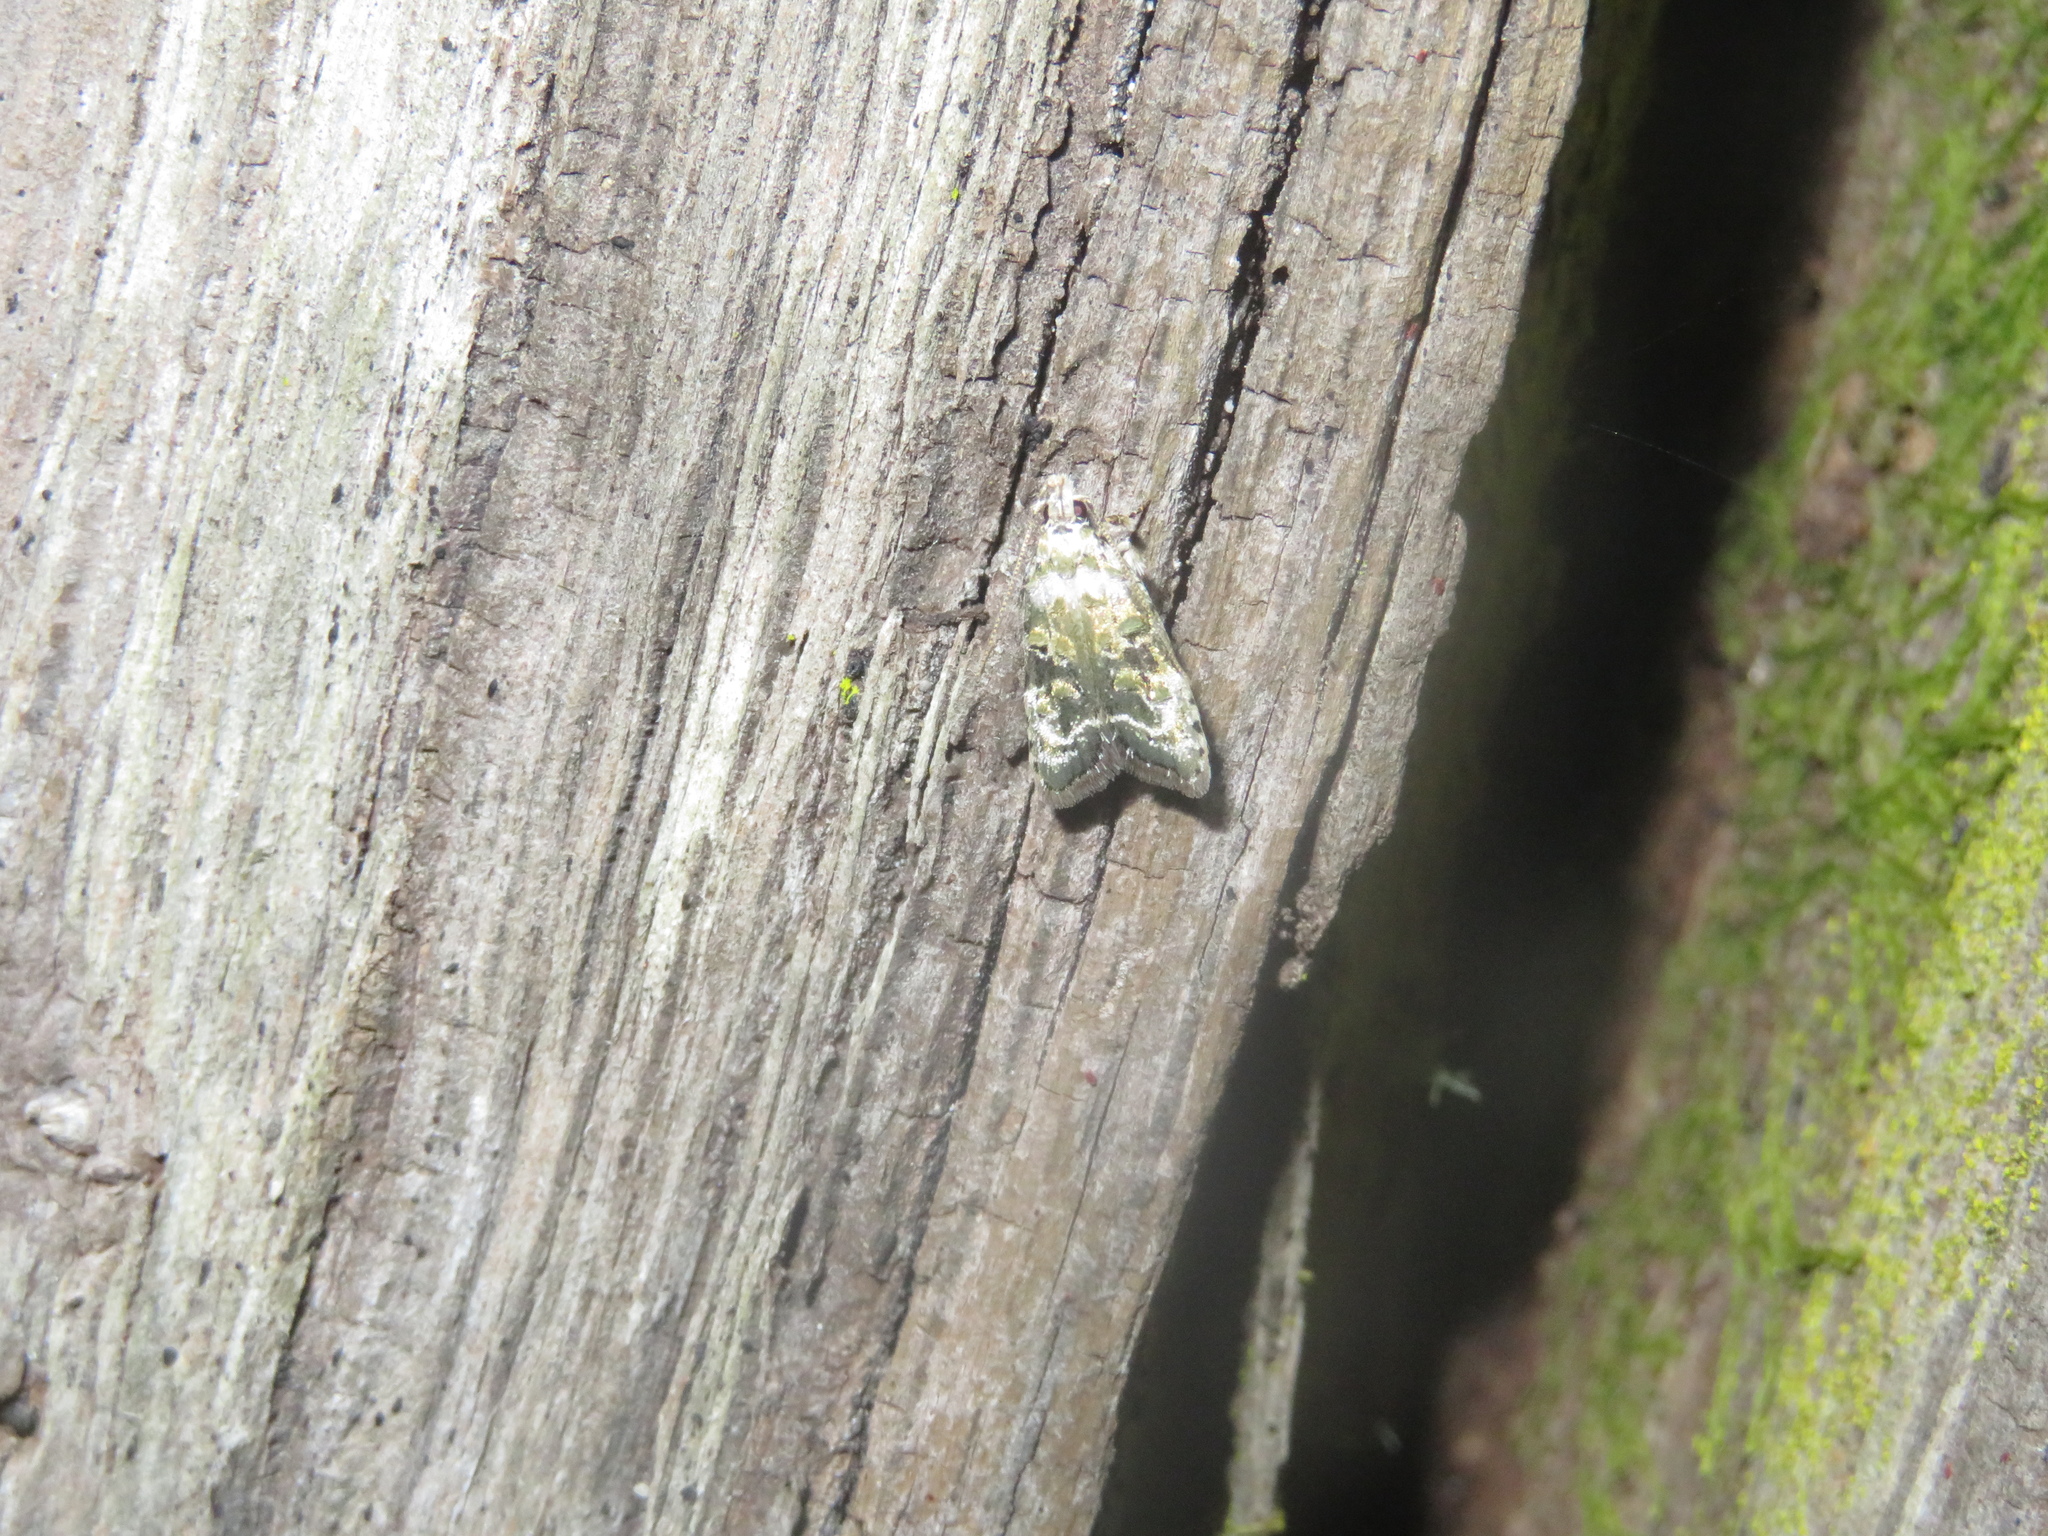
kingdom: Animalia
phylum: Arthropoda
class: Insecta
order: Lepidoptera
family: Oecophoridae
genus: Izatha
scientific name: Izatha prasophyta
